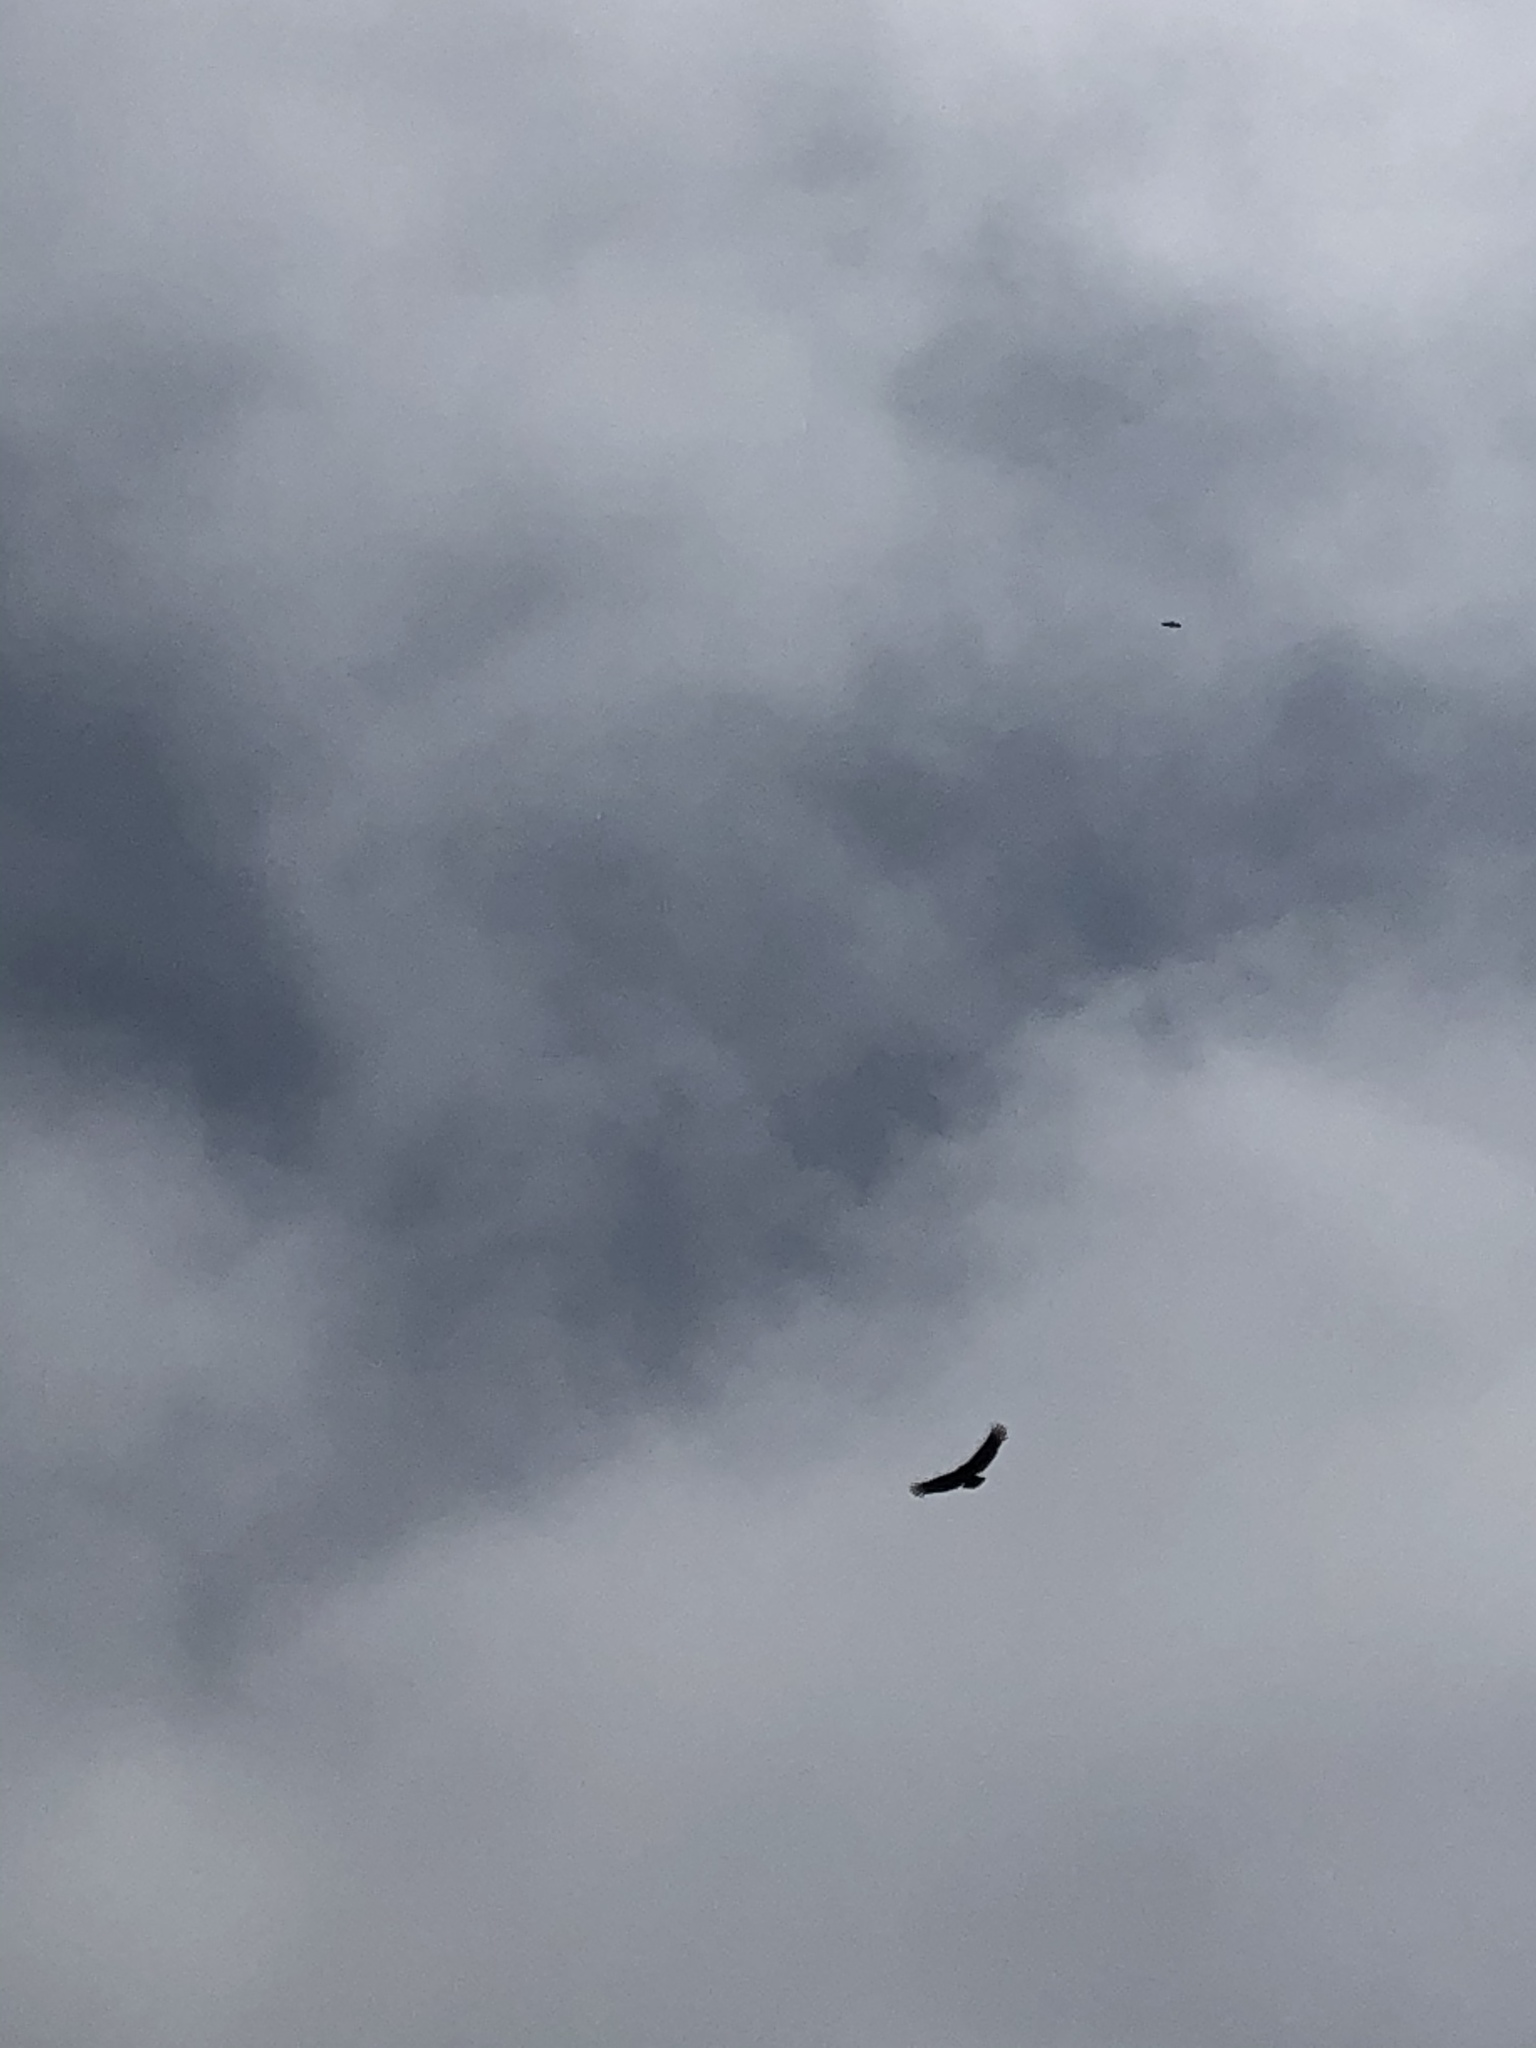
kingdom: Animalia
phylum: Chordata
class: Aves
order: Accipitriformes
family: Cathartidae
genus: Coragyps
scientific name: Coragyps atratus
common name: Black vulture
